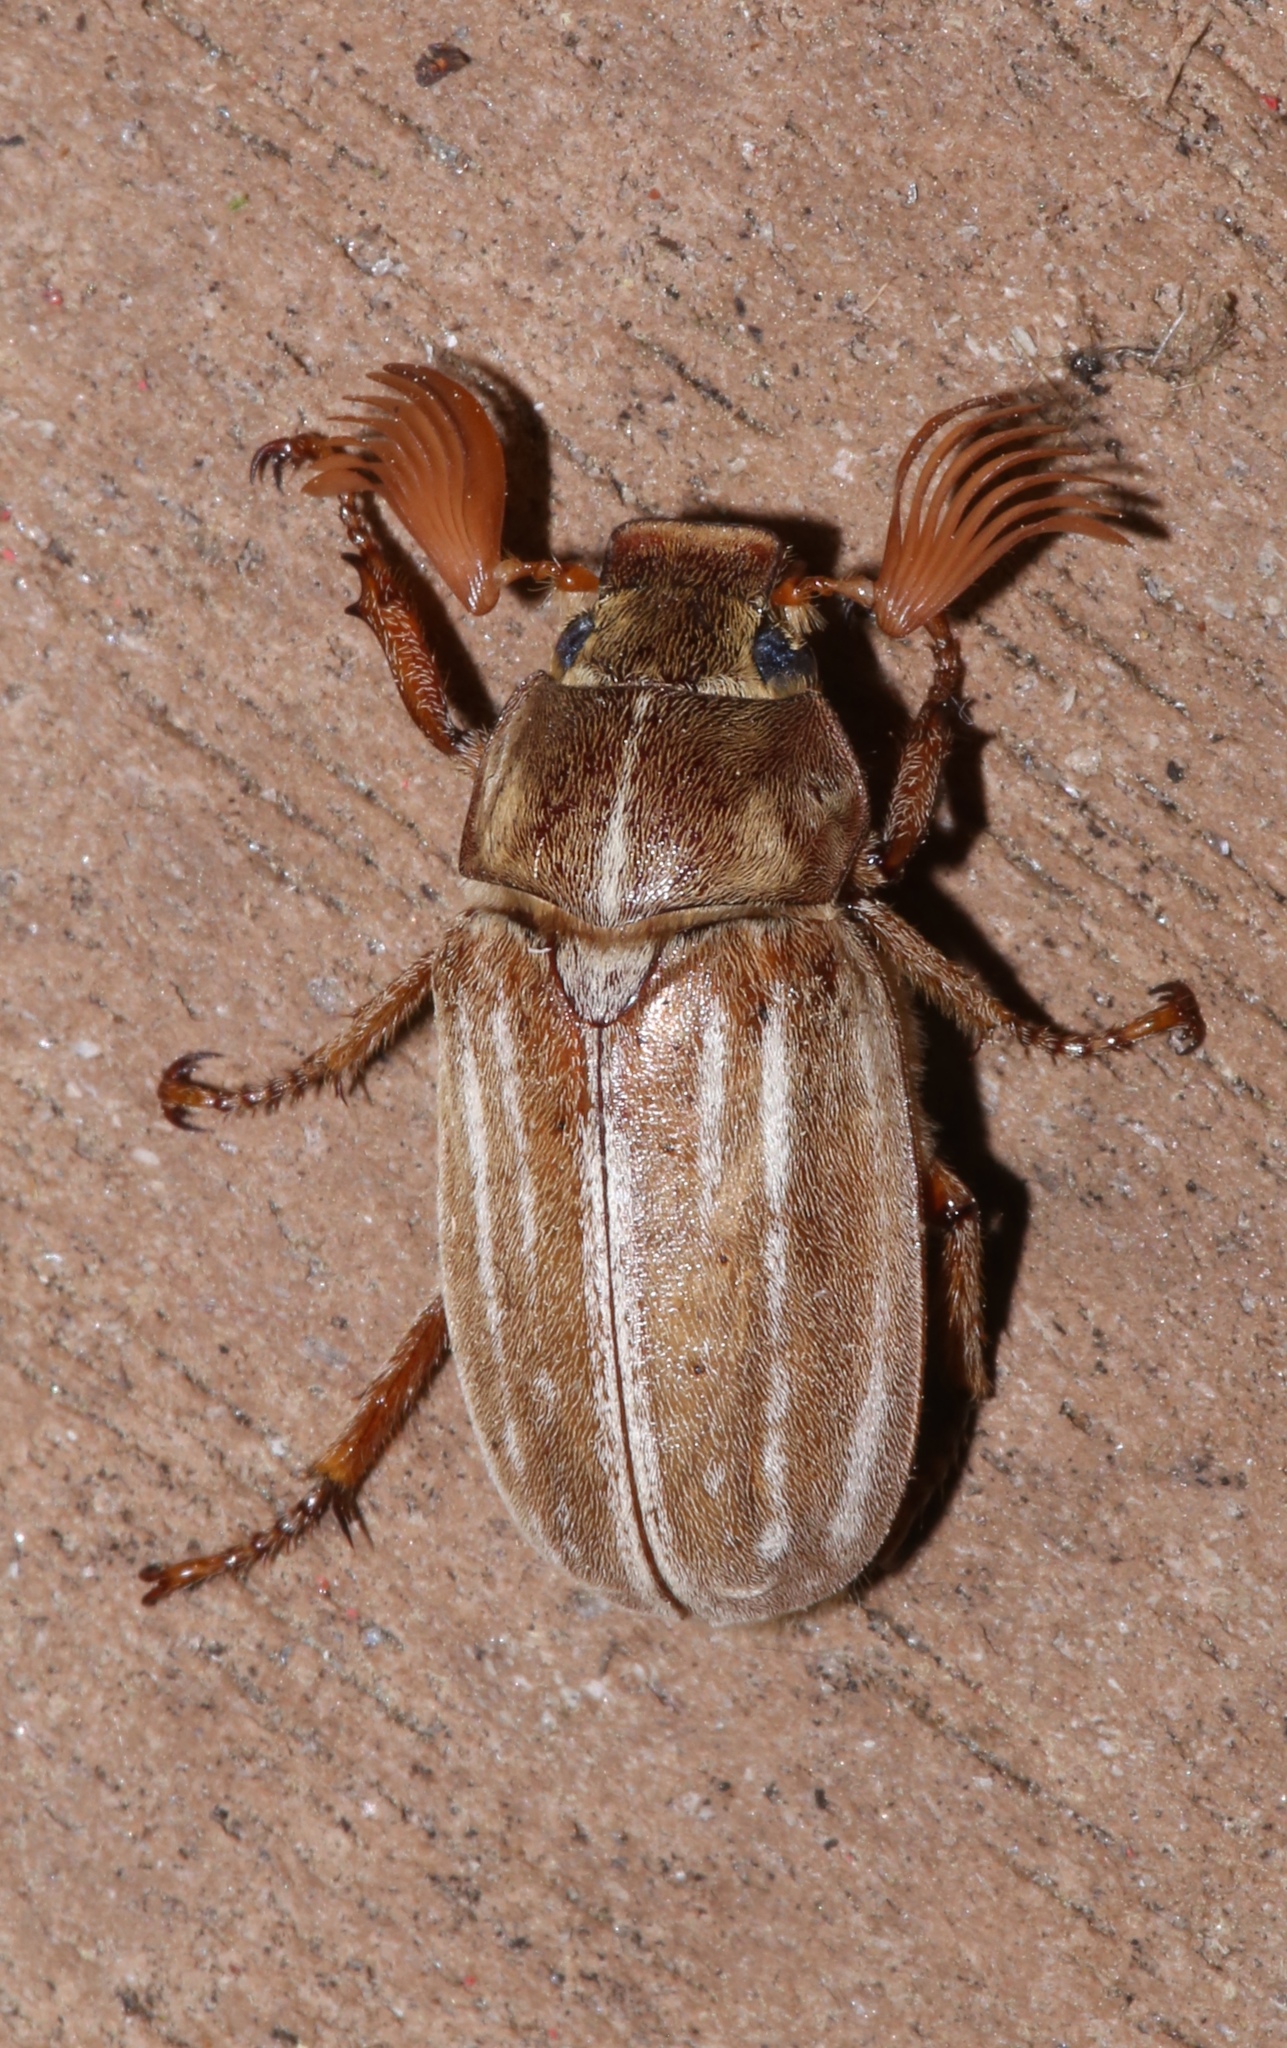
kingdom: Animalia
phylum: Arthropoda
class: Insecta
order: Coleoptera
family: Scarabaeidae
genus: Polyphylla
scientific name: Polyphylla occidentalis
